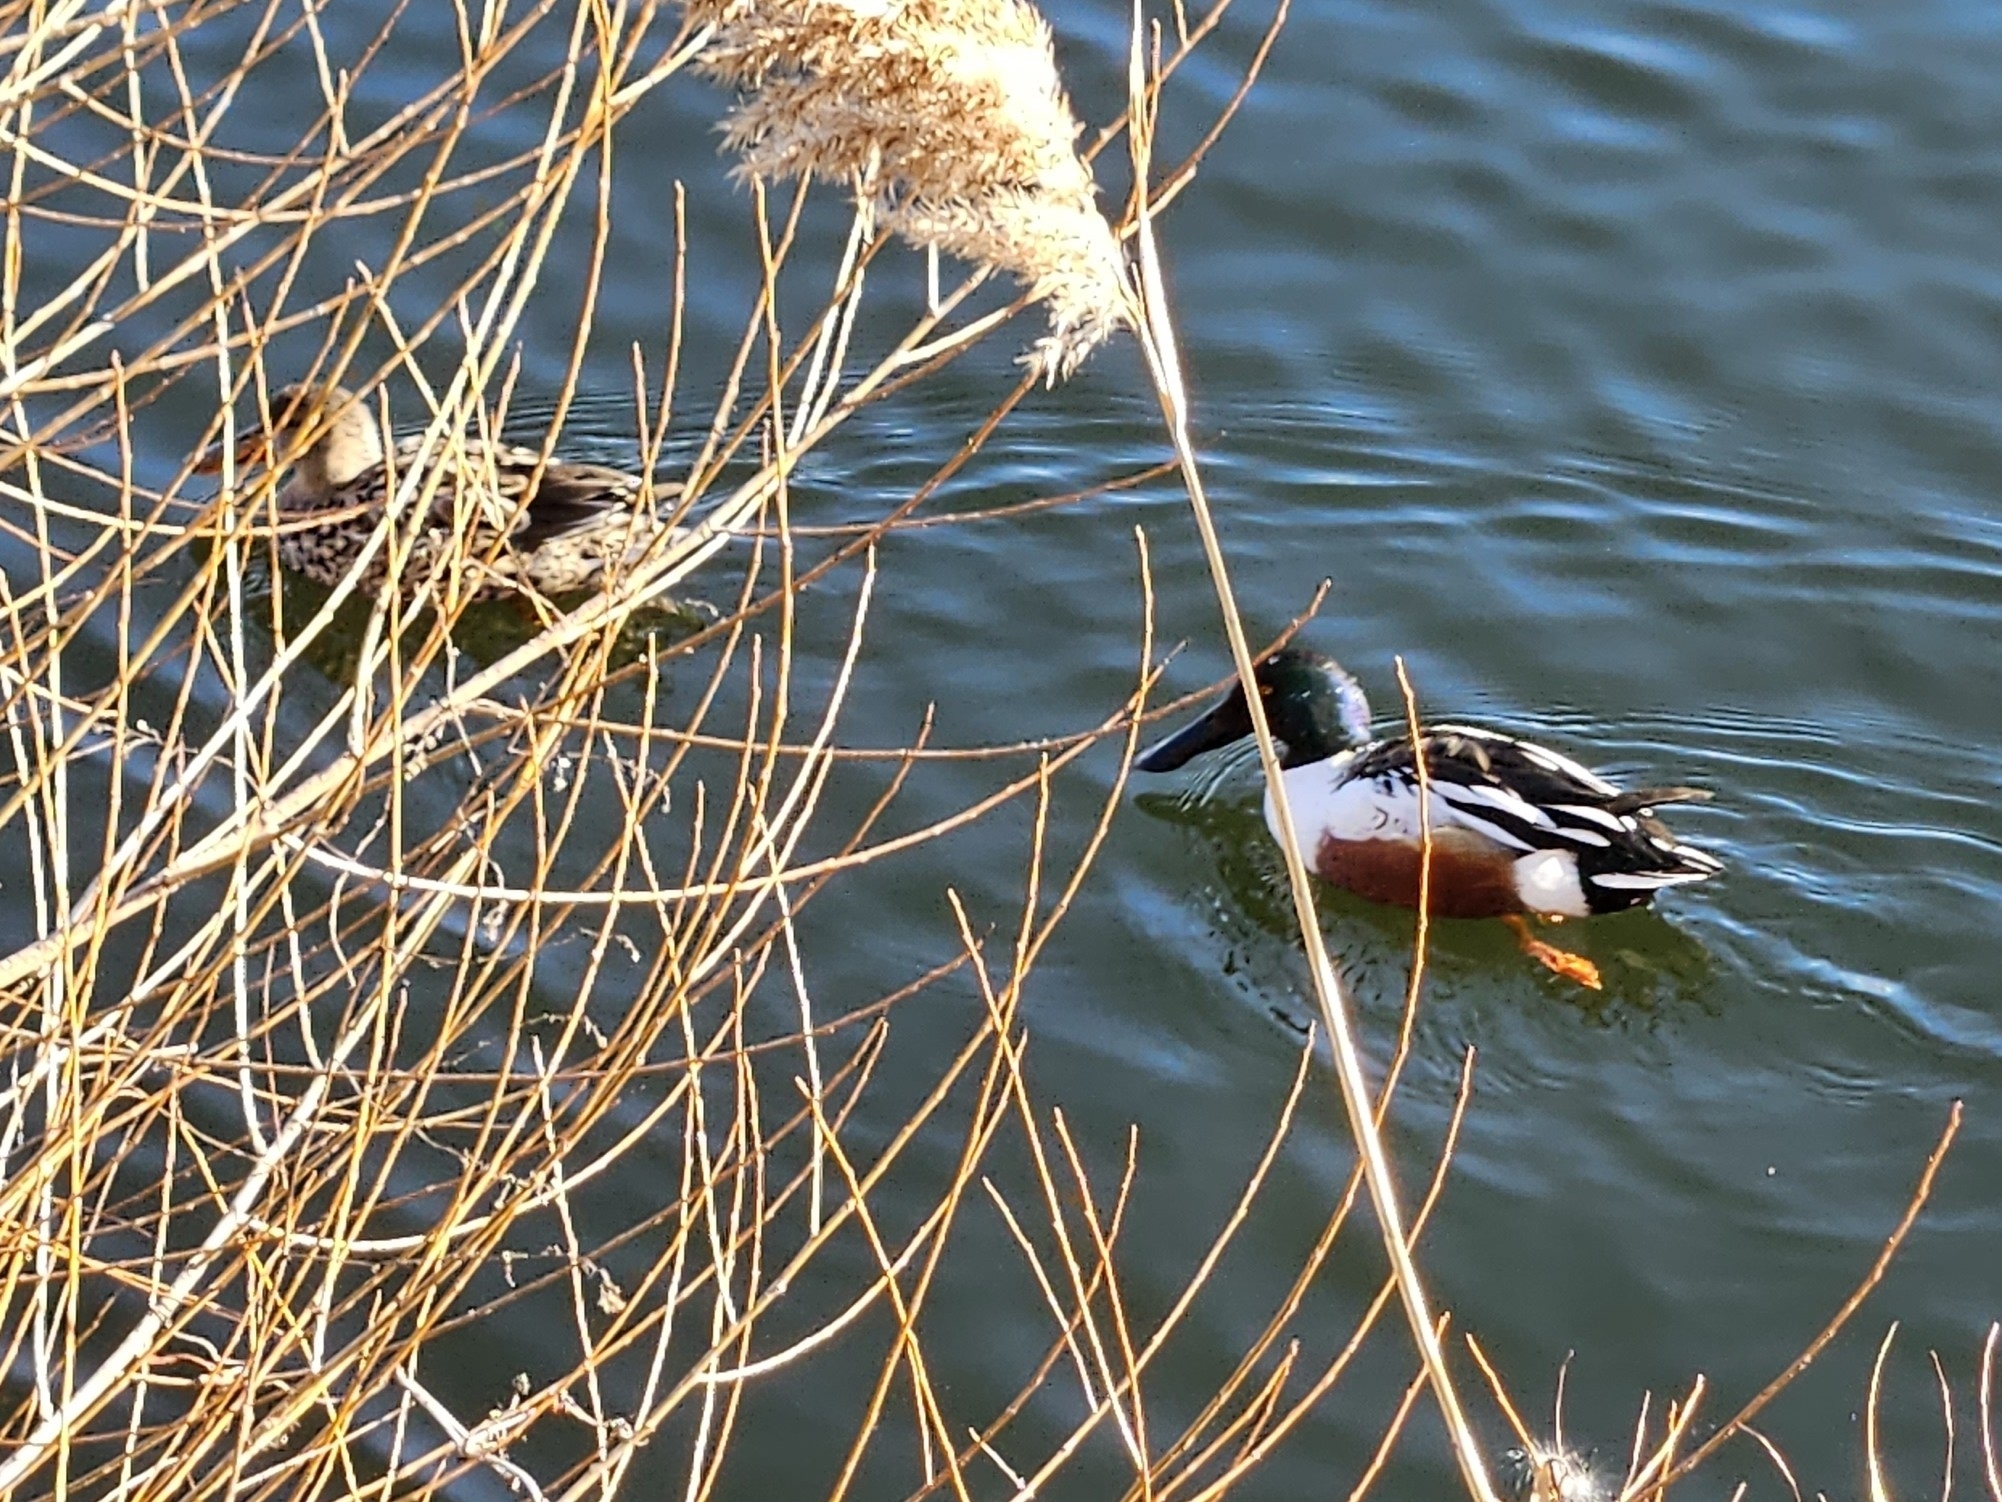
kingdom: Animalia
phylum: Chordata
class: Aves
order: Anseriformes
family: Anatidae
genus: Spatula
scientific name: Spatula clypeata
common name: Northern shoveler
